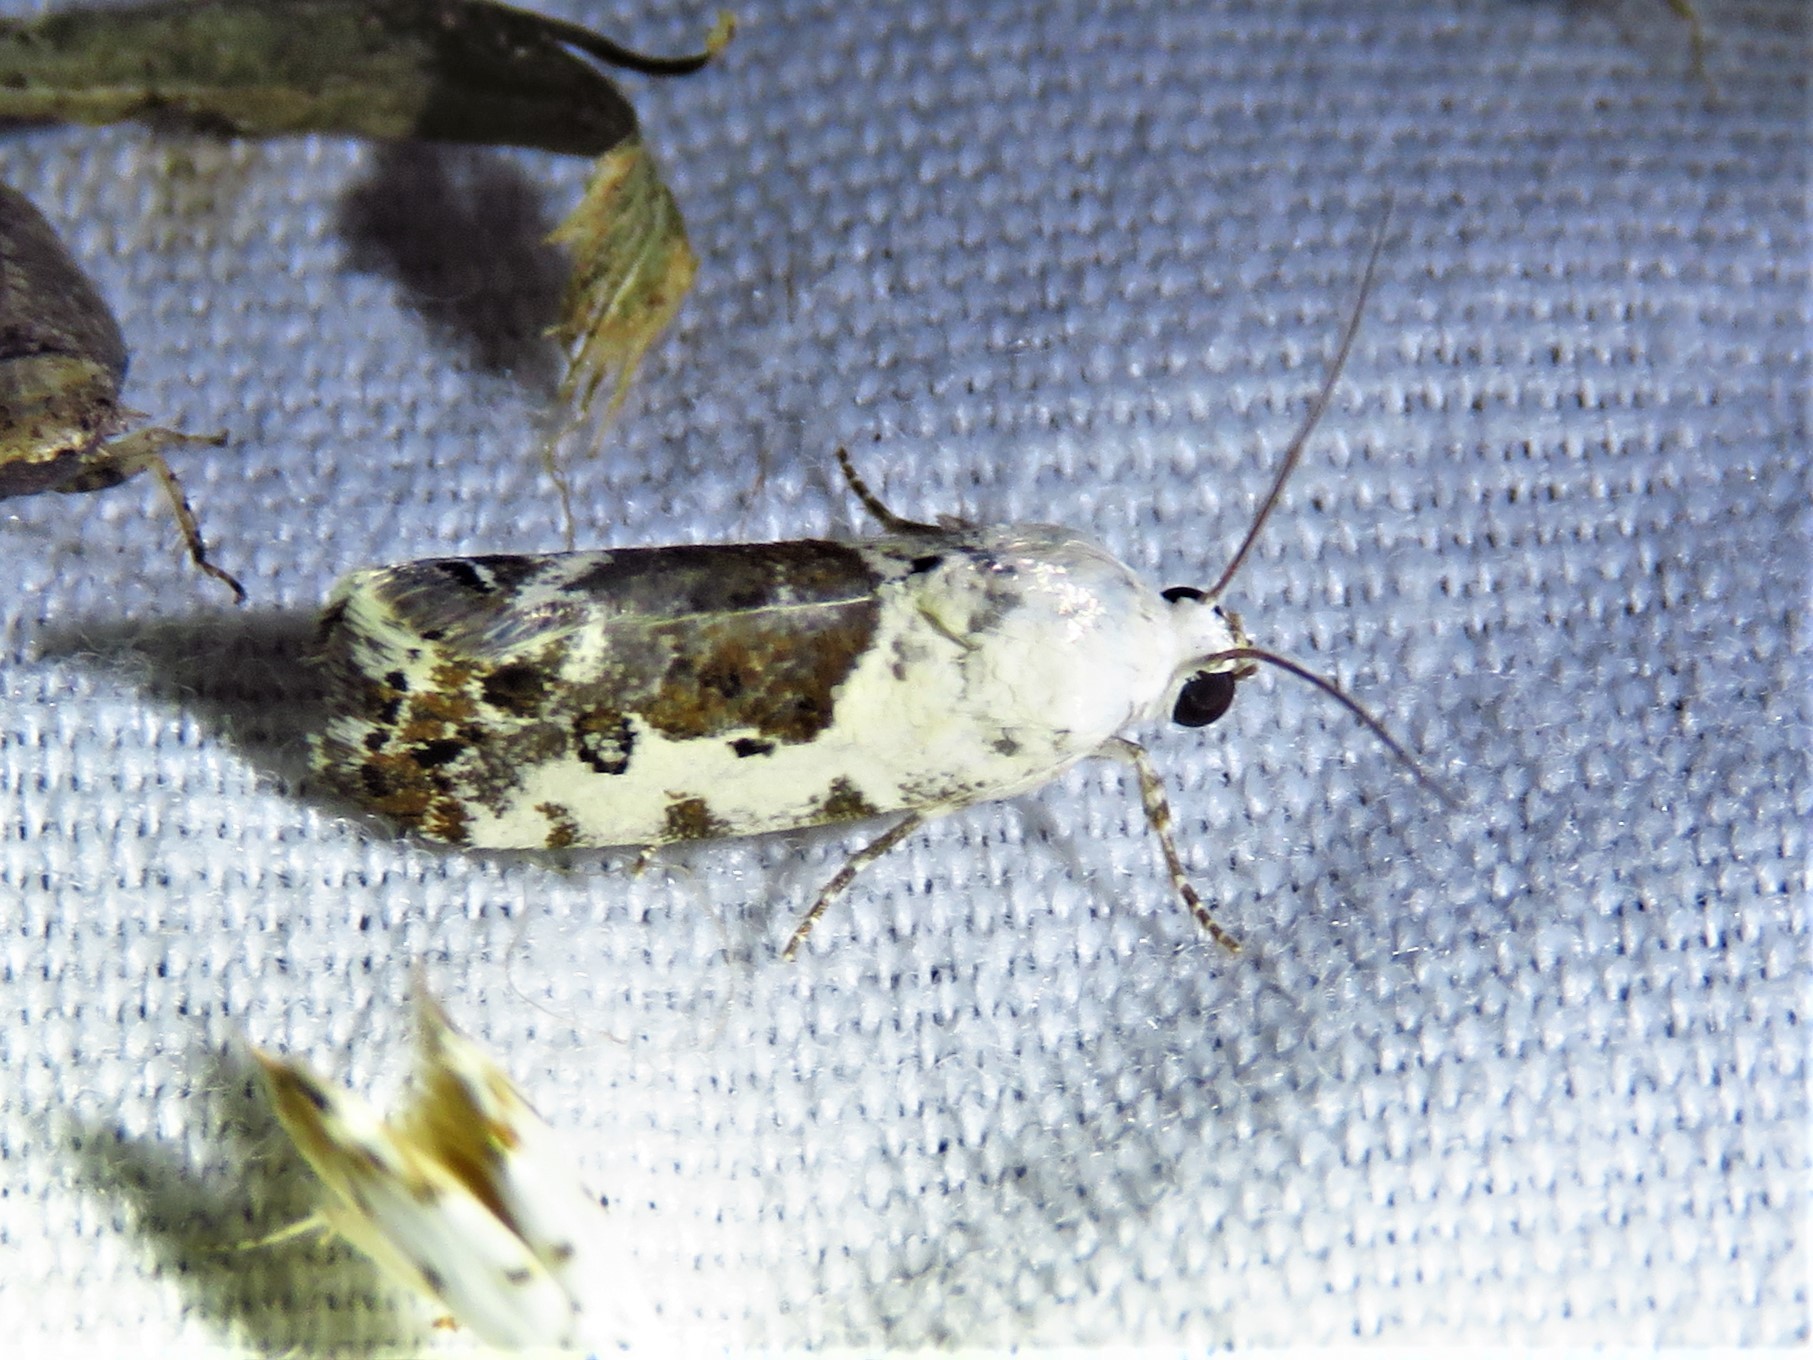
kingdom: Animalia
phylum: Arthropoda
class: Insecta
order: Lepidoptera
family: Noctuidae
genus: Acontia
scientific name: Acontia phecolisca
